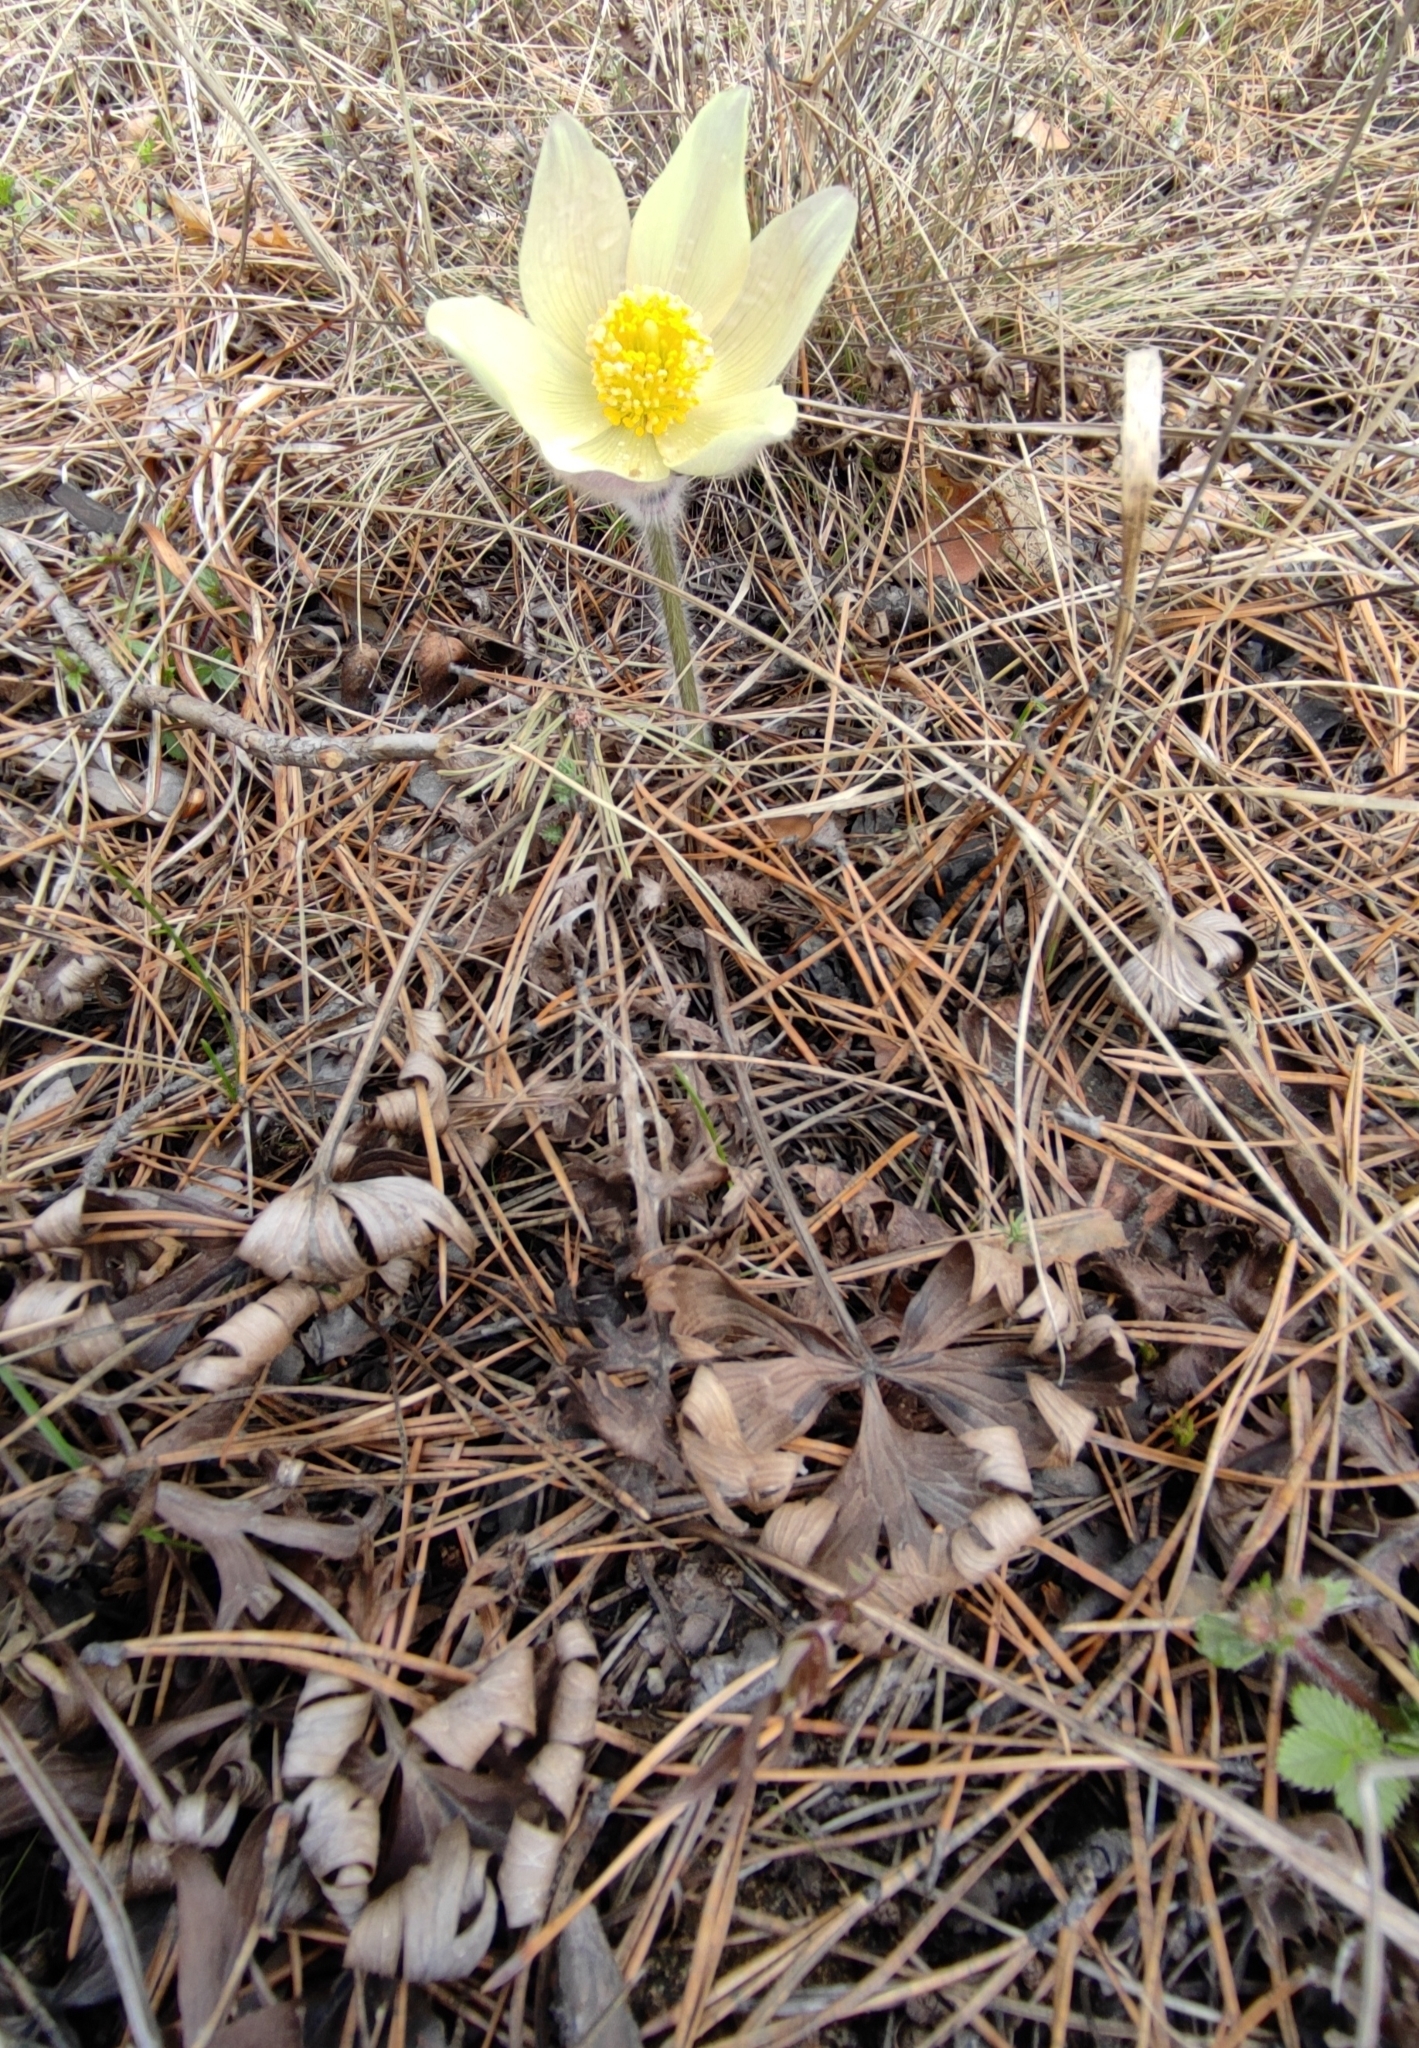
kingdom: Plantae
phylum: Tracheophyta
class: Magnoliopsida
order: Ranunculales
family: Ranunculaceae
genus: Pulsatilla
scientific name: Pulsatilla patens
